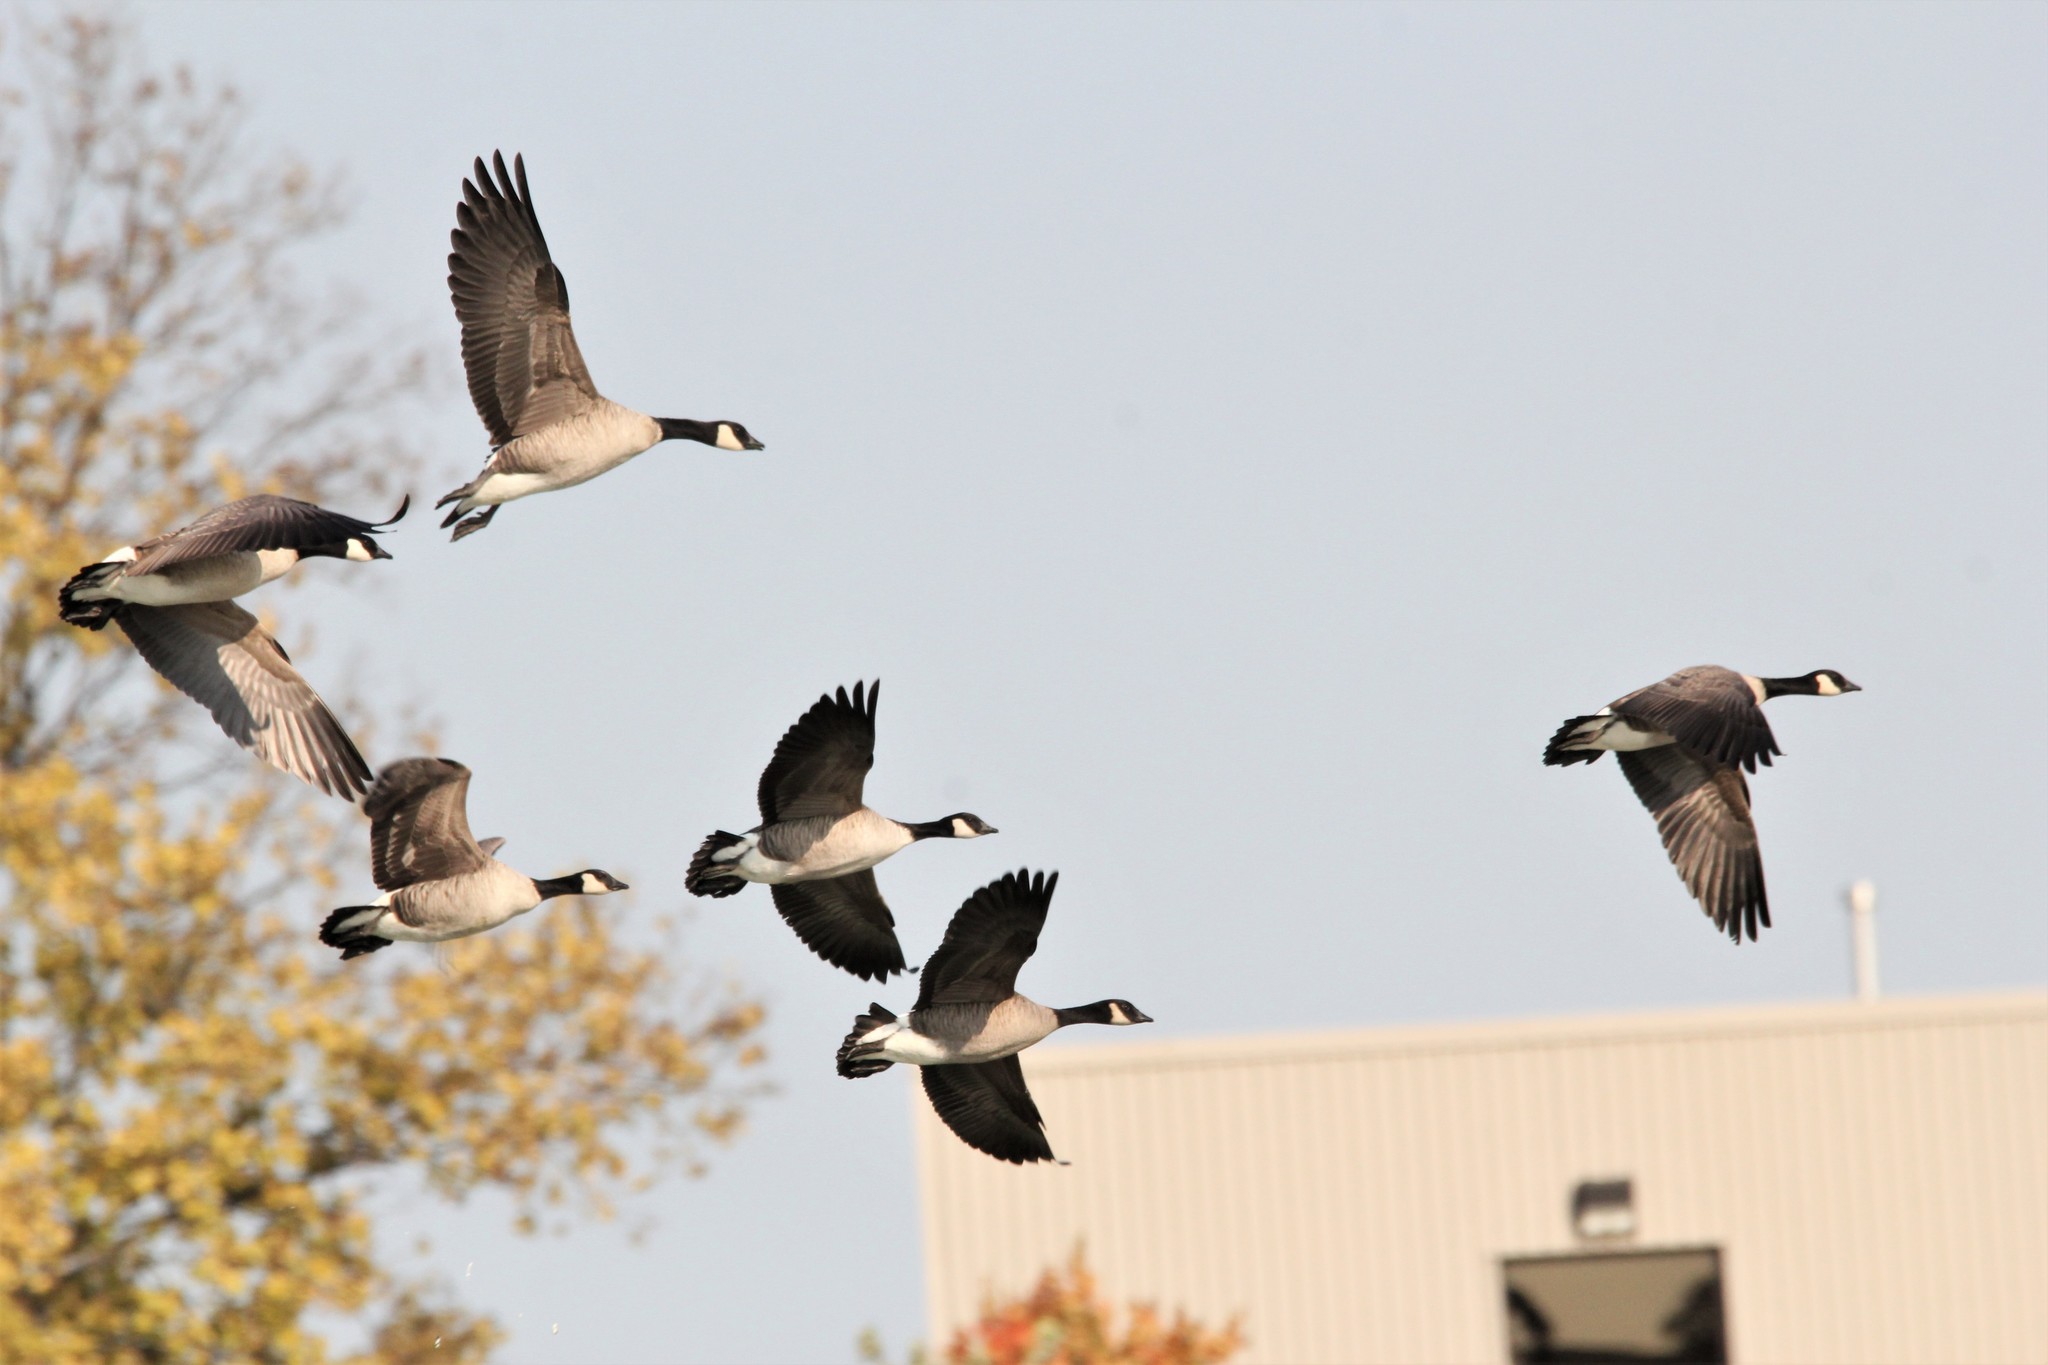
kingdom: Animalia
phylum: Chordata
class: Aves
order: Anseriformes
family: Anatidae
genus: Branta
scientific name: Branta hutchinsii
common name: Cackling goose
